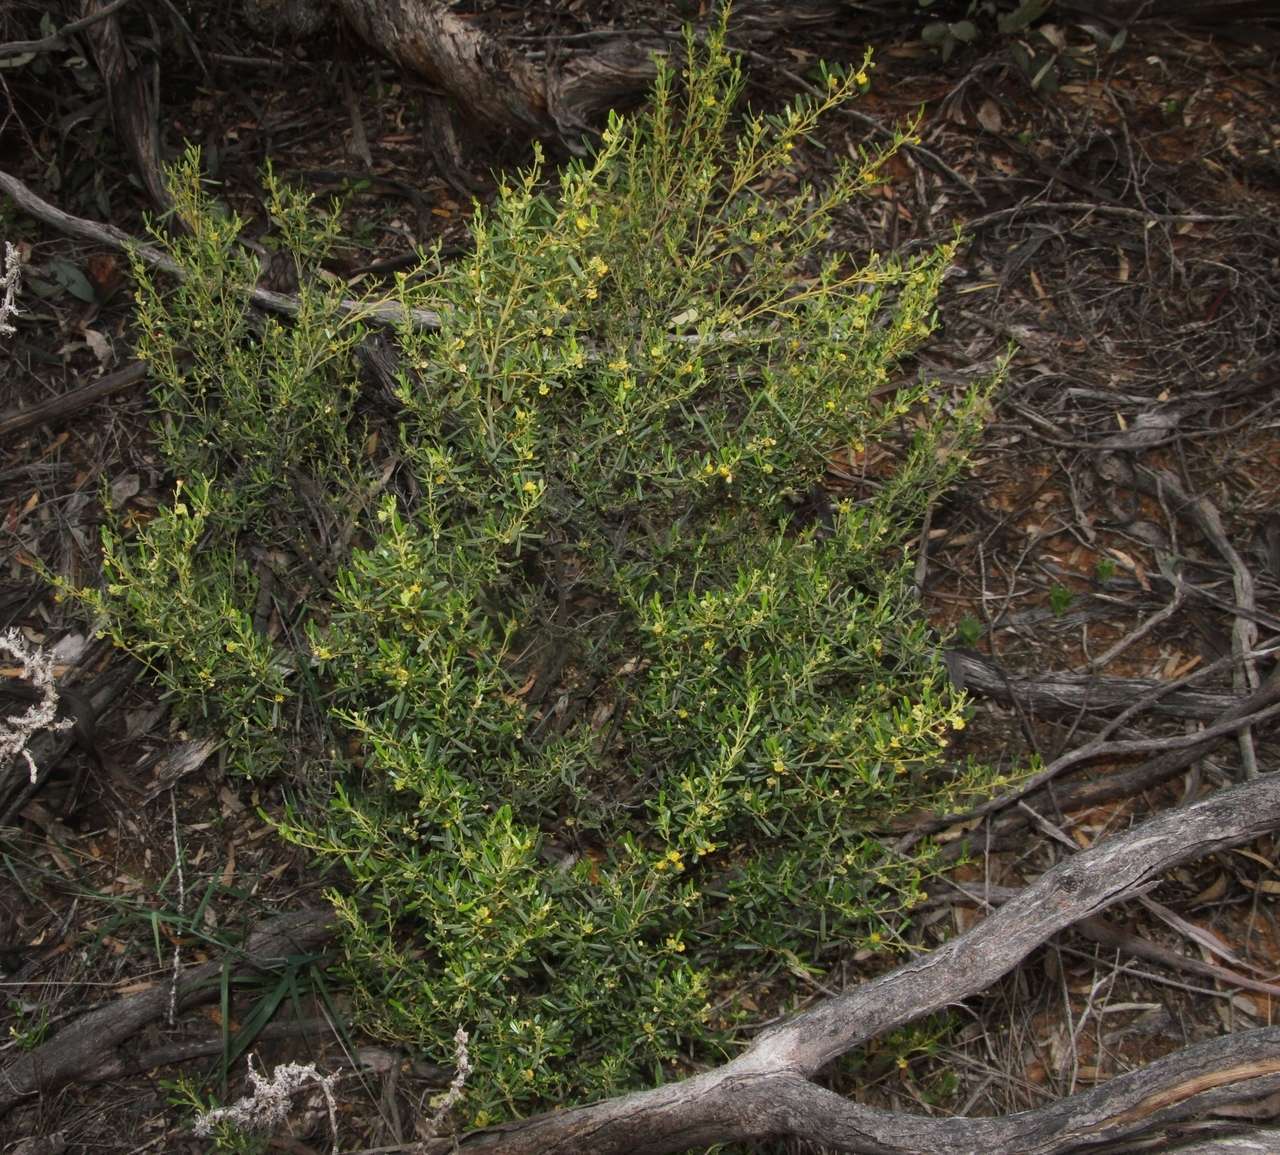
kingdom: Plantae
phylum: Tracheophyta
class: Magnoliopsida
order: Malpighiales
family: Euphorbiaceae
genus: Beyeria
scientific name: Beyeria opaca
